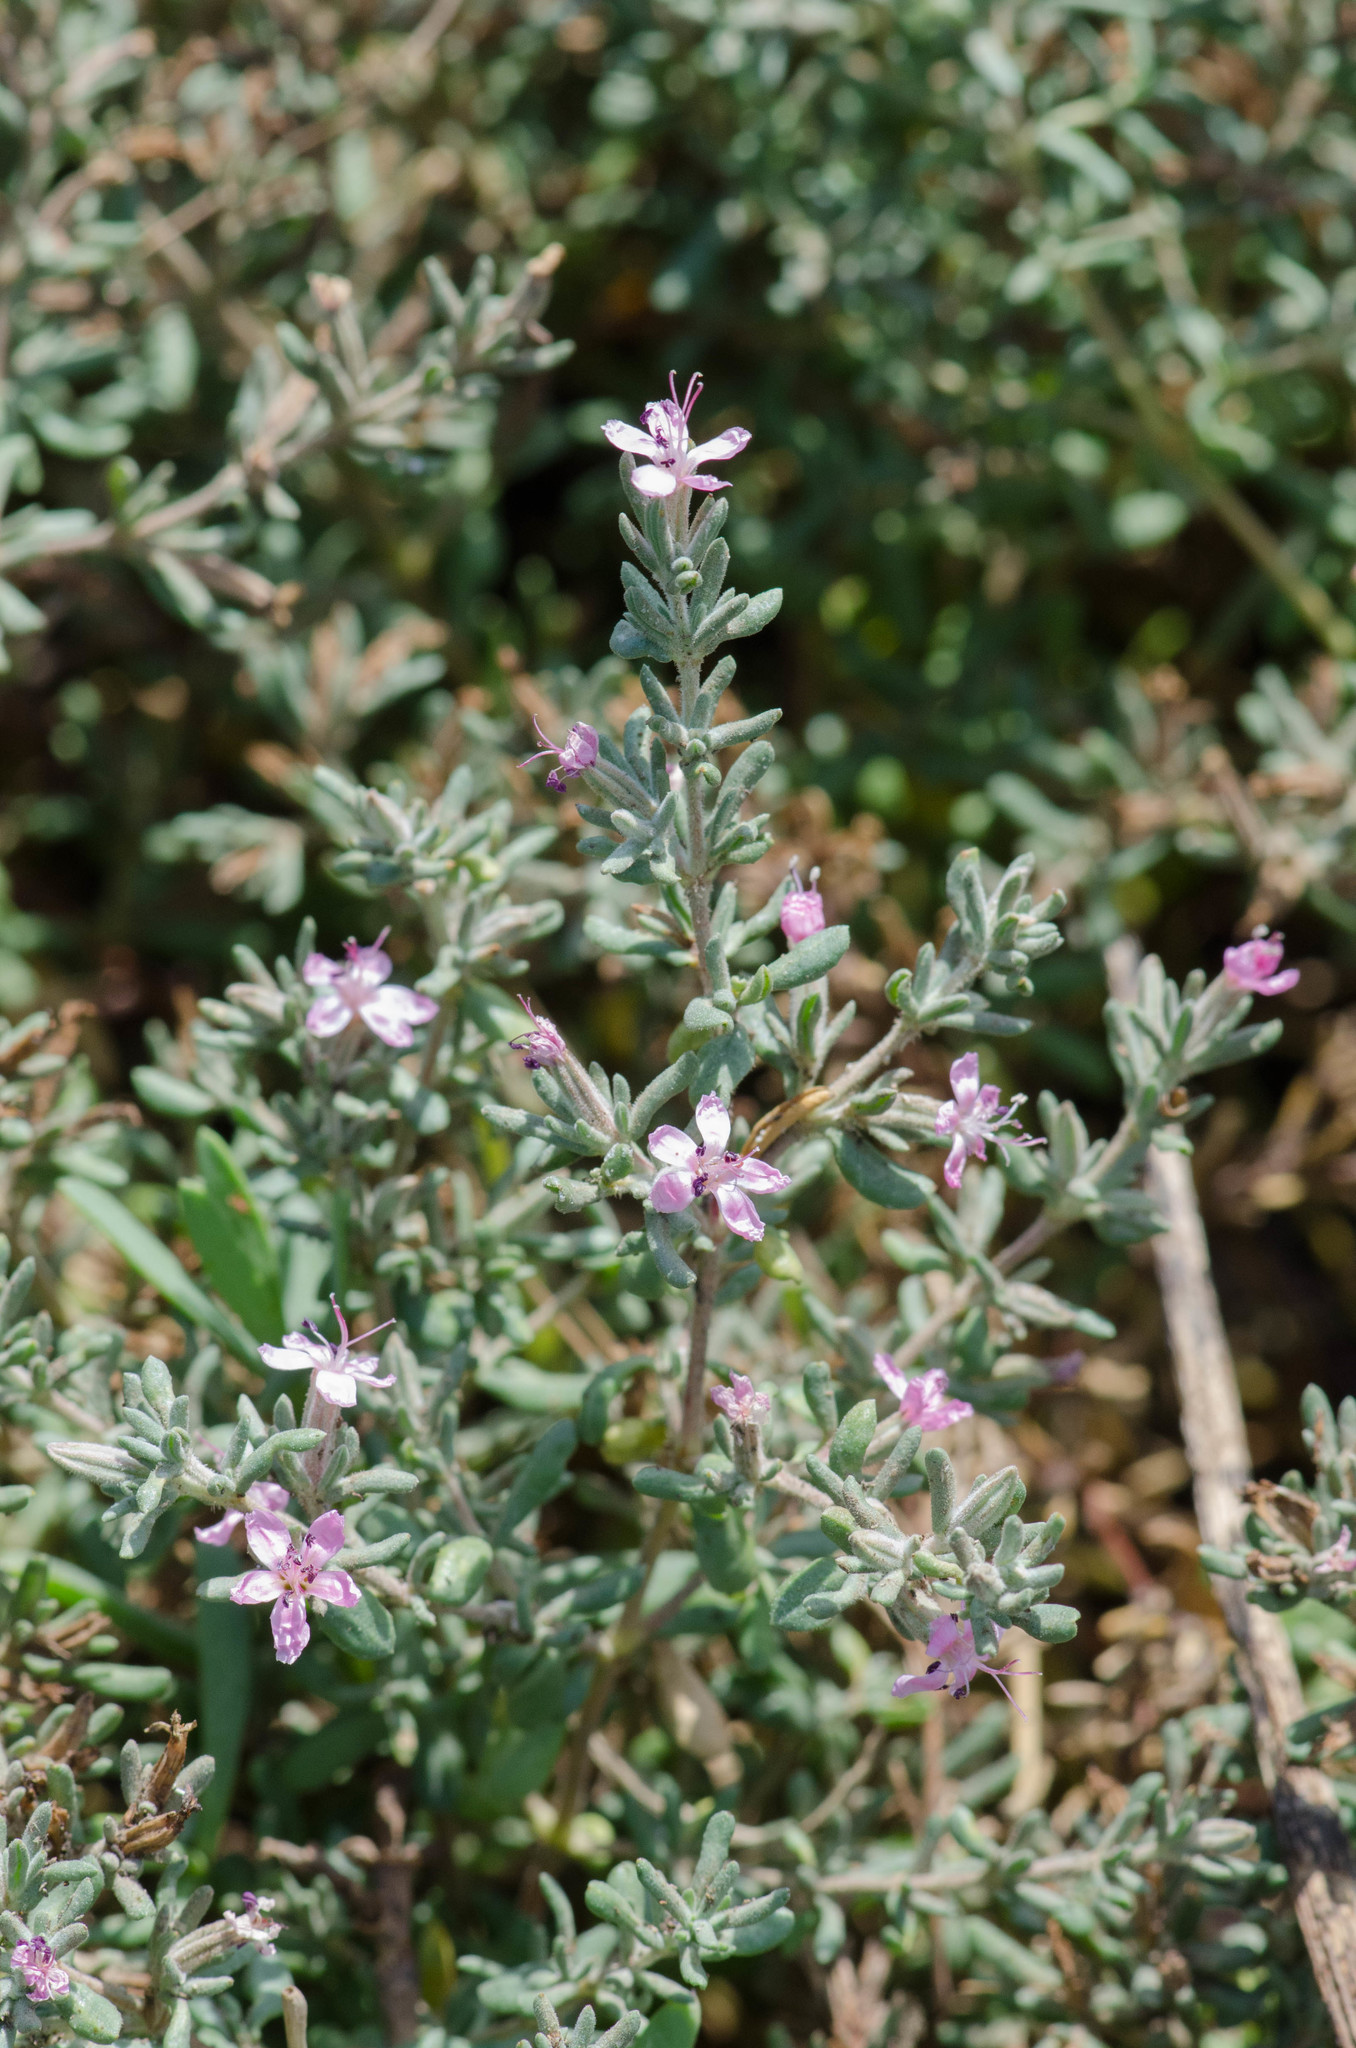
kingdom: Plantae
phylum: Tracheophyta
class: Magnoliopsida
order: Caryophyllales
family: Frankeniaceae
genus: Frankenia
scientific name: Frankenia salina
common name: Alkali seaheath
